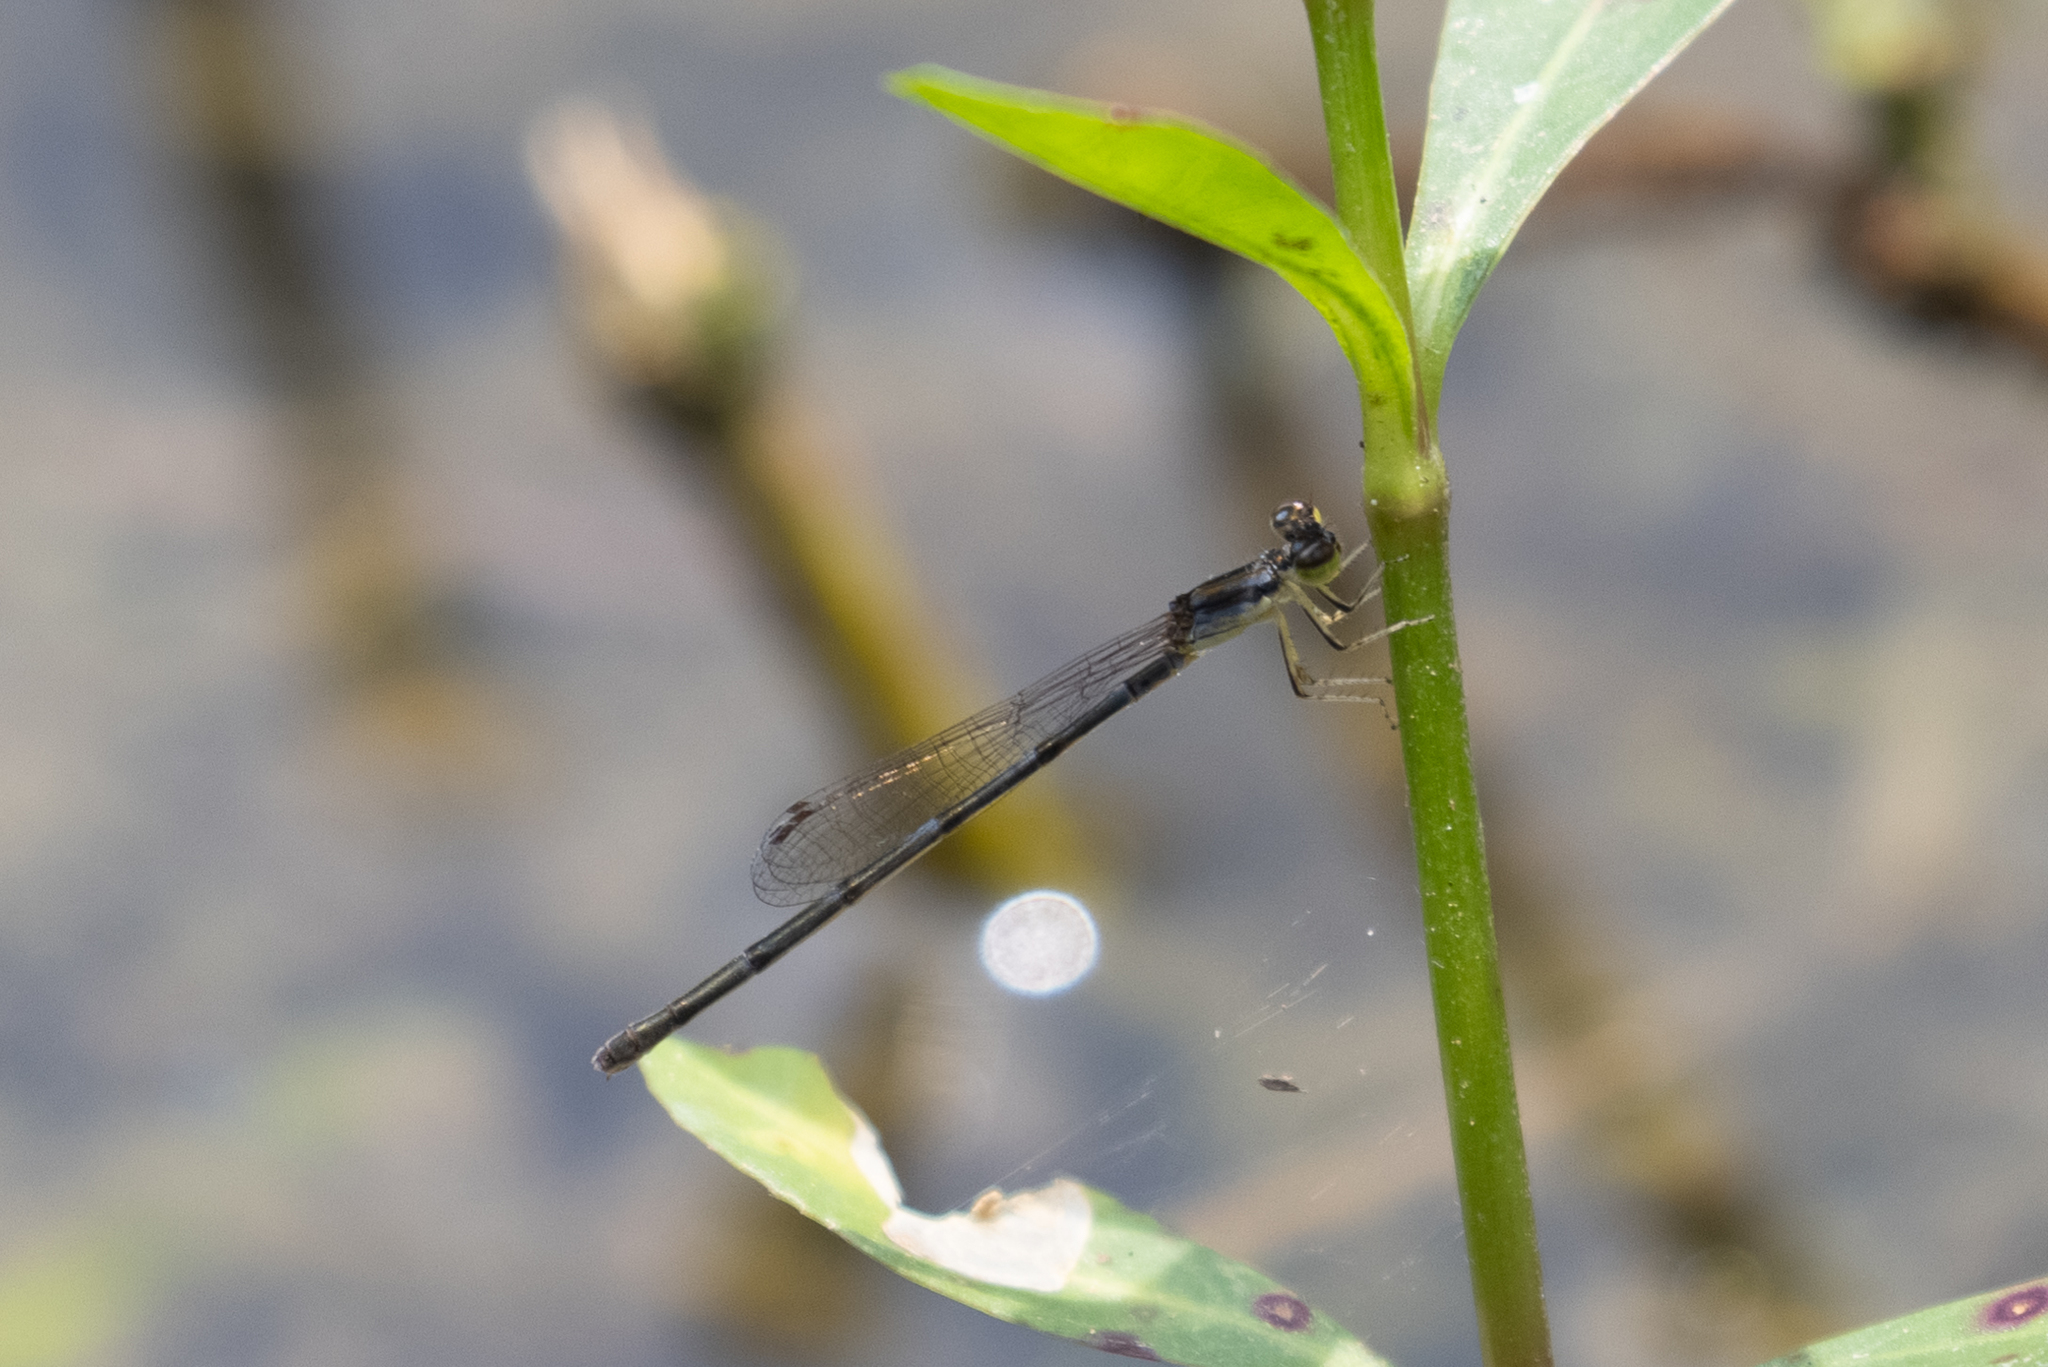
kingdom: Animalia
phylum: Arthropoda
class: Insecta
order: Odonata
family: Coenagrionidae
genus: Ischnura
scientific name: Ischnura posita
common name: Fragile forktail
